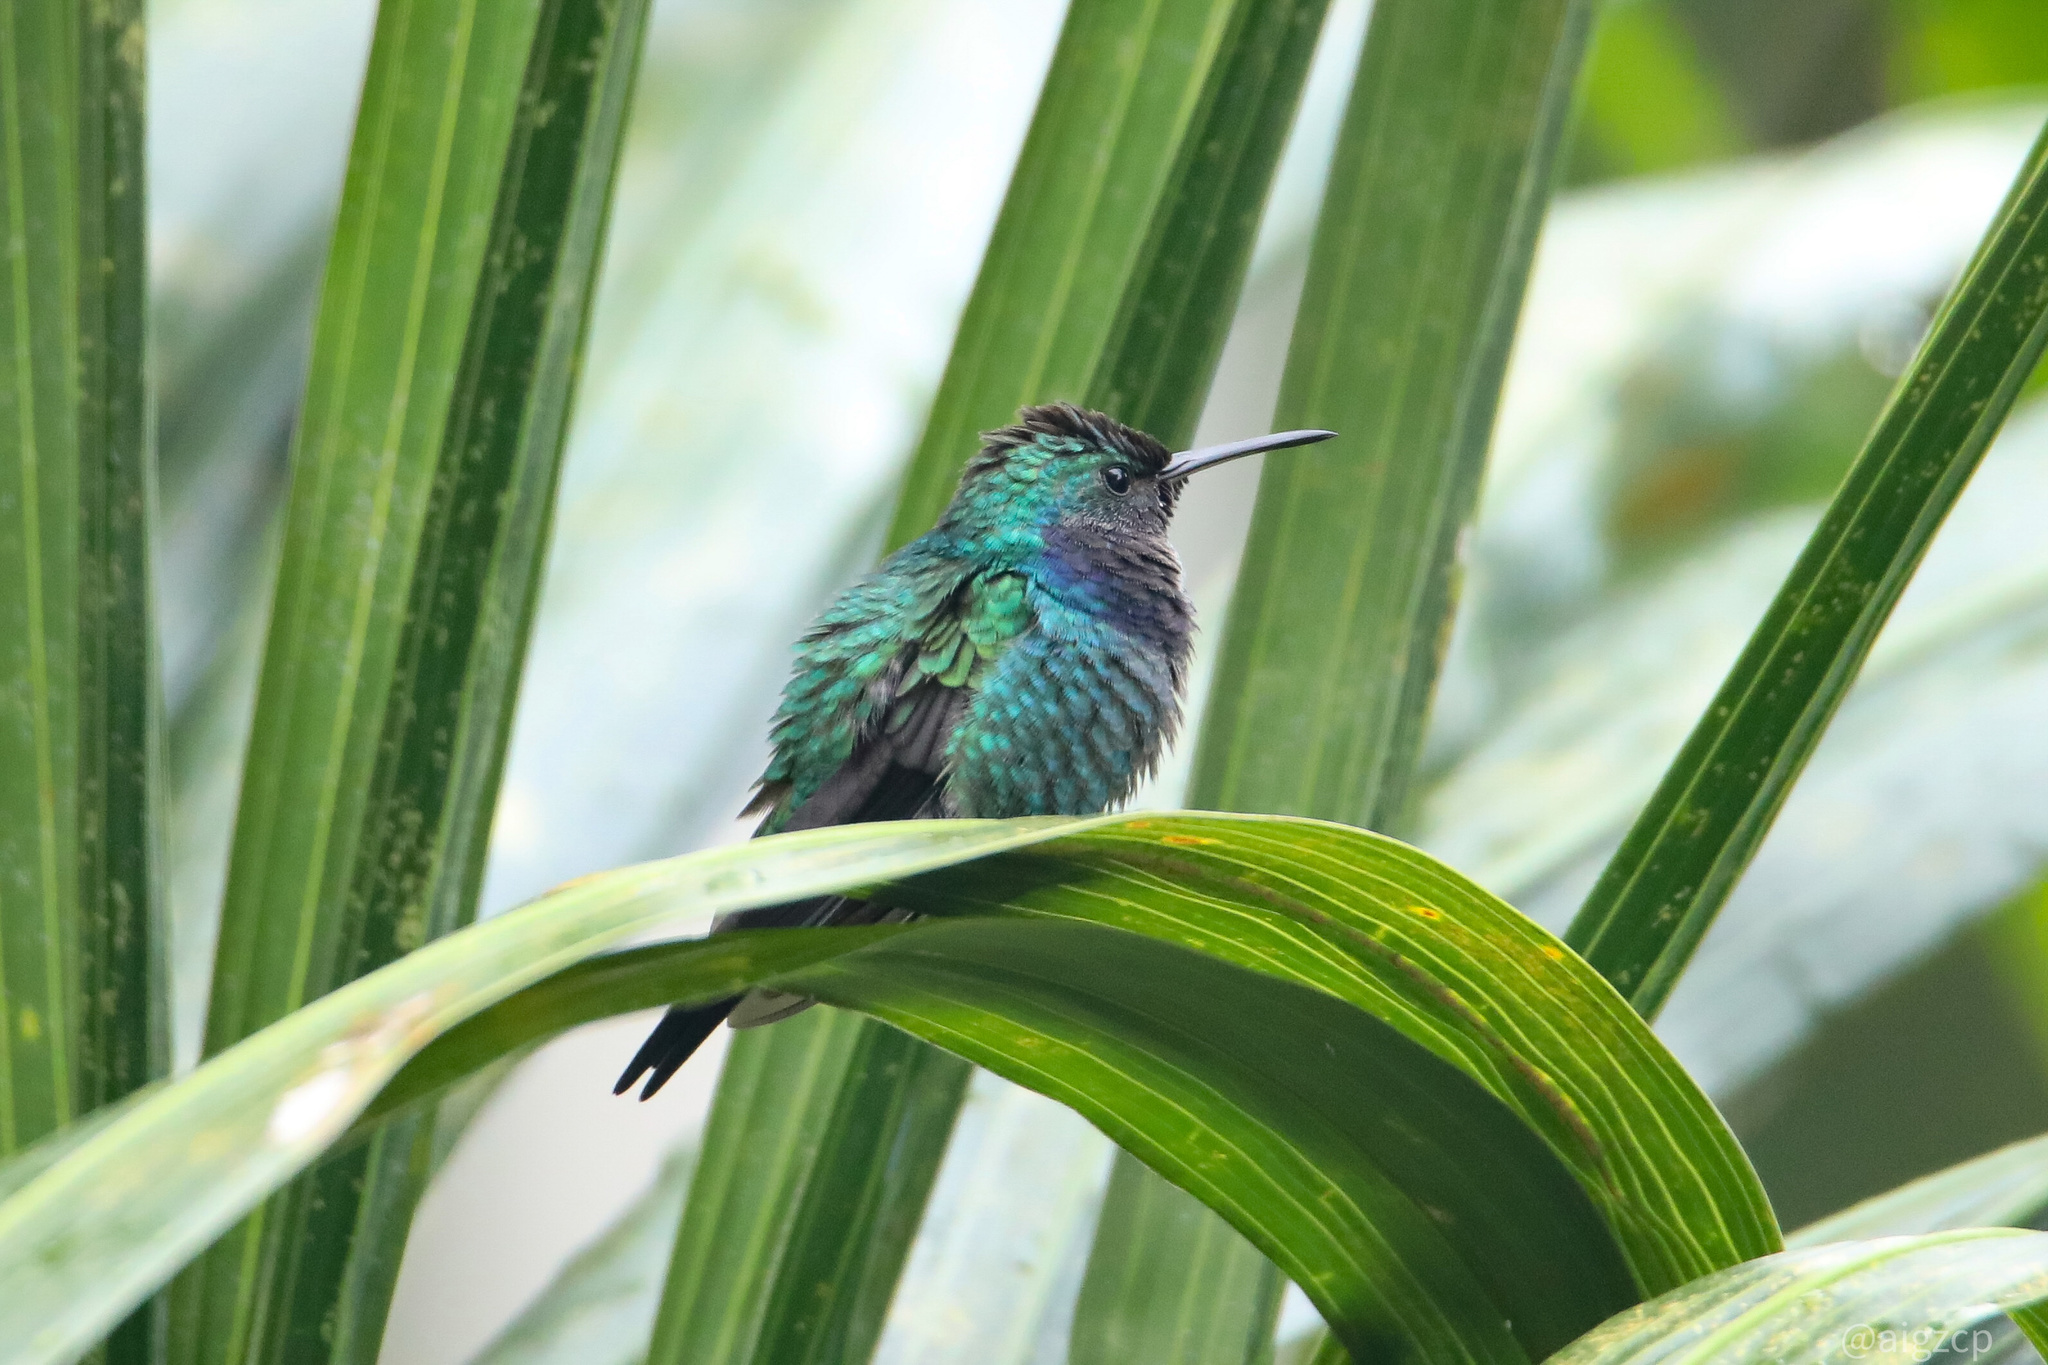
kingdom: Animalia
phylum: Chordata
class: Aves
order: Apodiformes
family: Trochilidae
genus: Chrysuronia
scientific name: Chrysuronia coeruleogularis
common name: Sapphire-throated hummingbird
